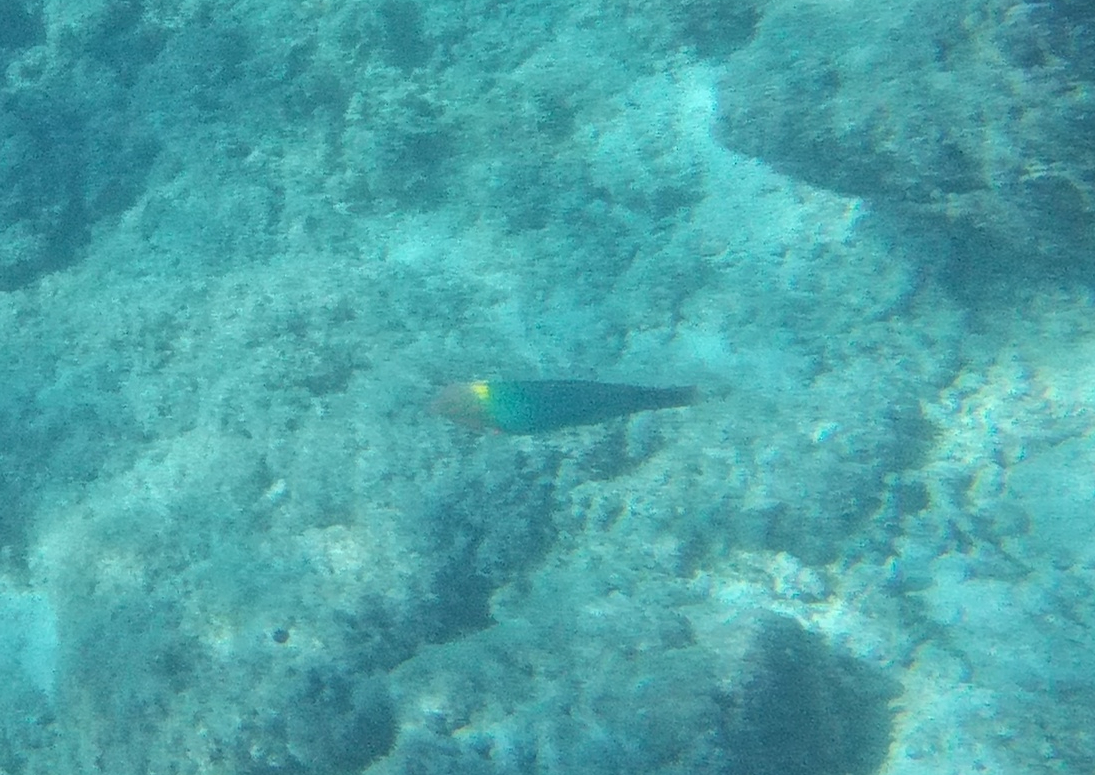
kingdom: Animalia
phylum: Chordata
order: Perciformes
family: Labridae
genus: Halichoeres
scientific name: Halichoeres hortulanus
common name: Checkerboard wrasse
